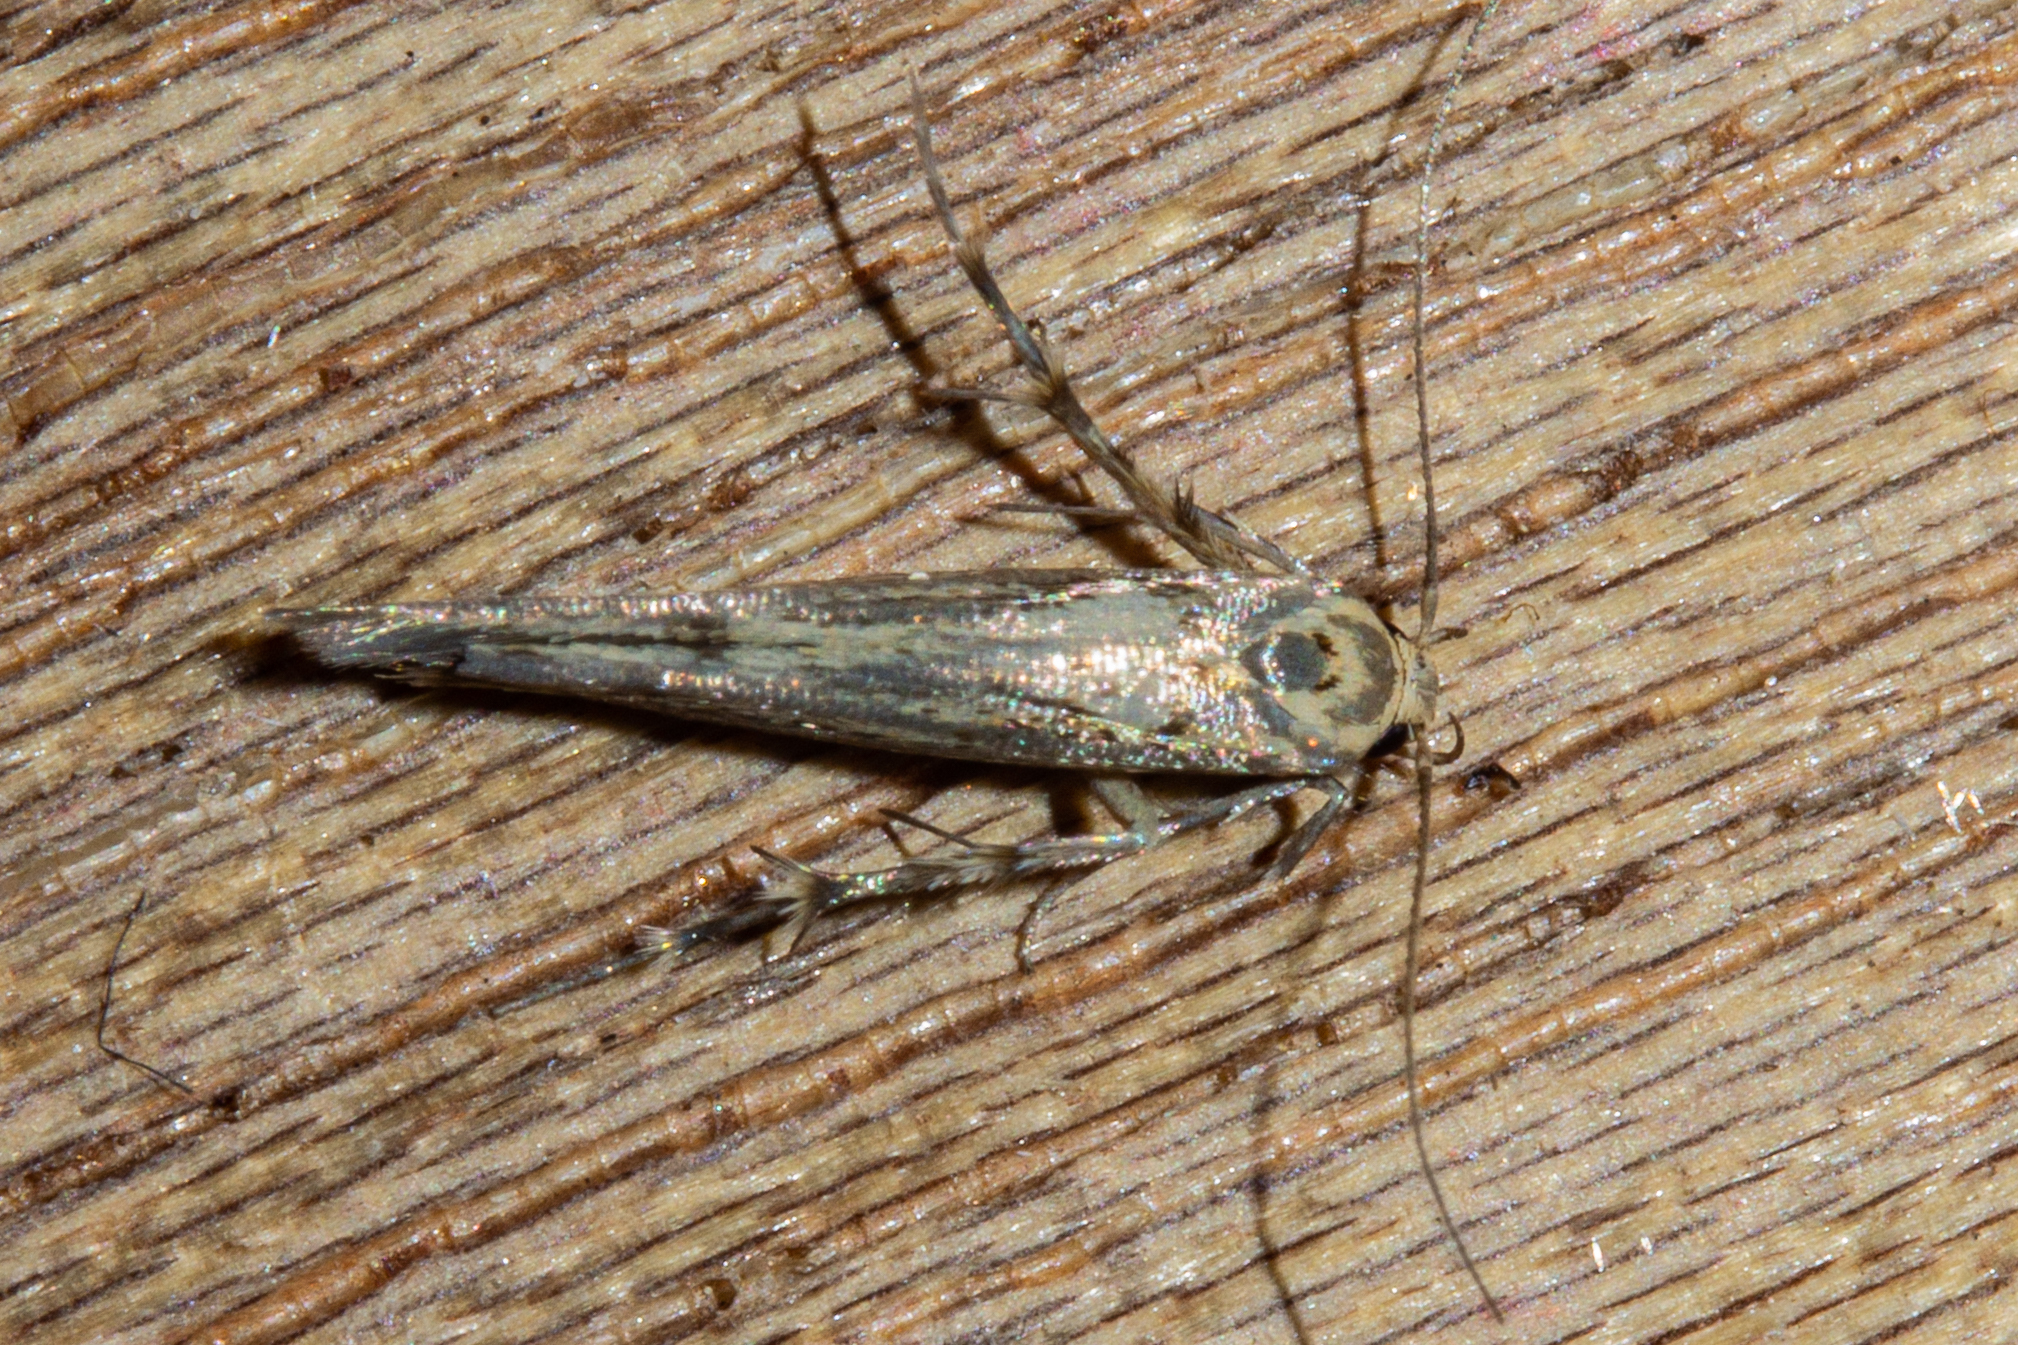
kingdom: Animalia
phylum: Arthropoda
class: Insecta
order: Lepidoptera
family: Stathmopodidae
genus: Stathmopoda
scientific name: Stathmopoda plumbiflua
